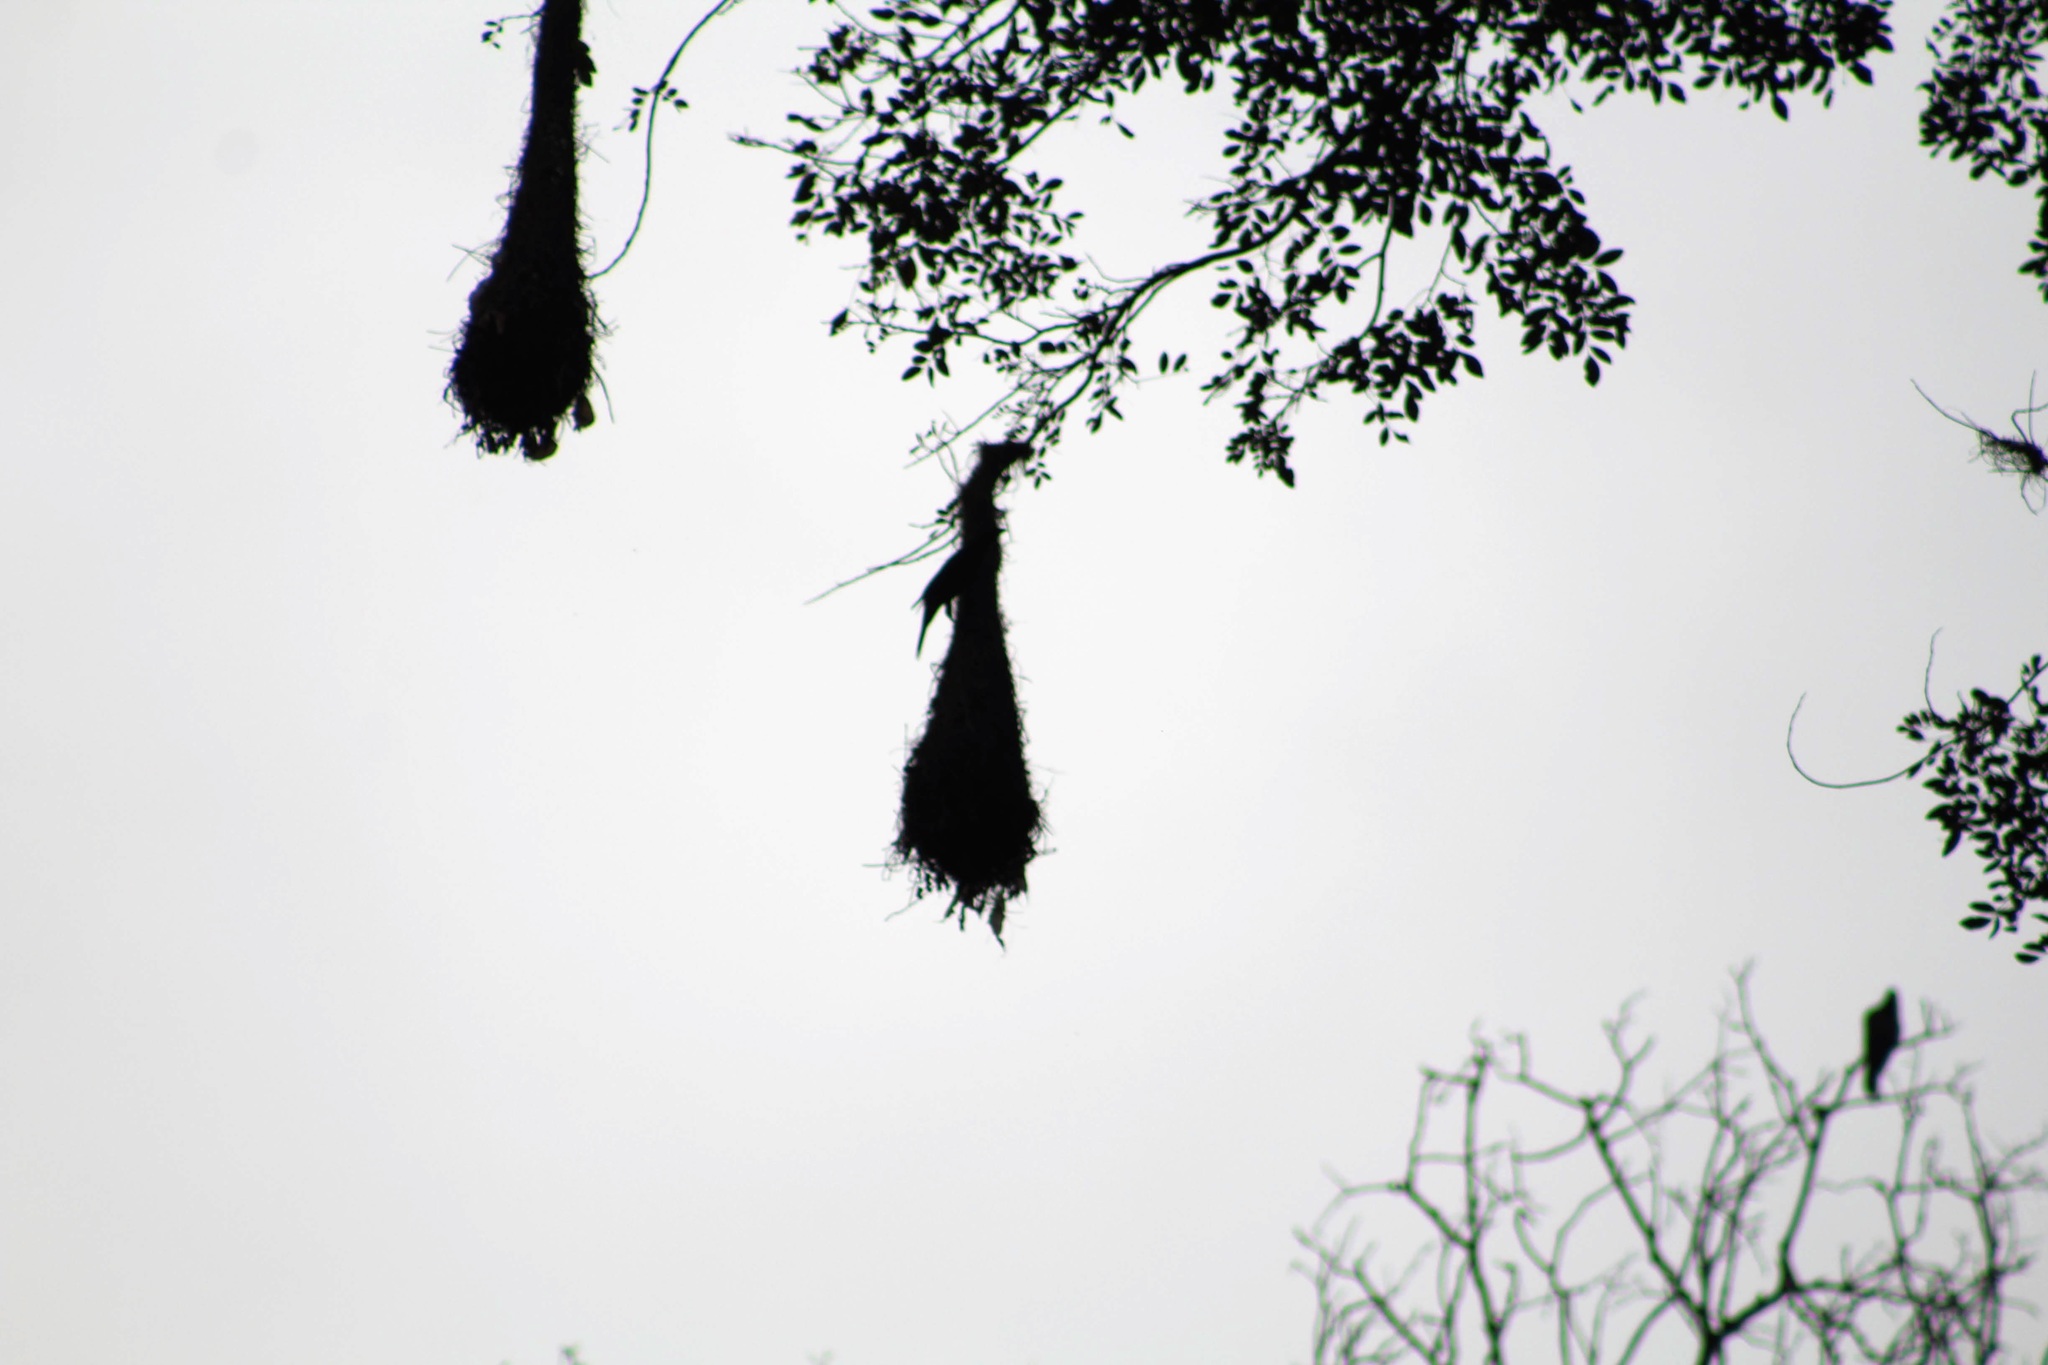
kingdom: Animalia
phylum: Chordata
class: Aves
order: Passeriformes
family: Icteridae
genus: Psarocolius
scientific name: Psarocolius decumanus
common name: Crested oropendola
